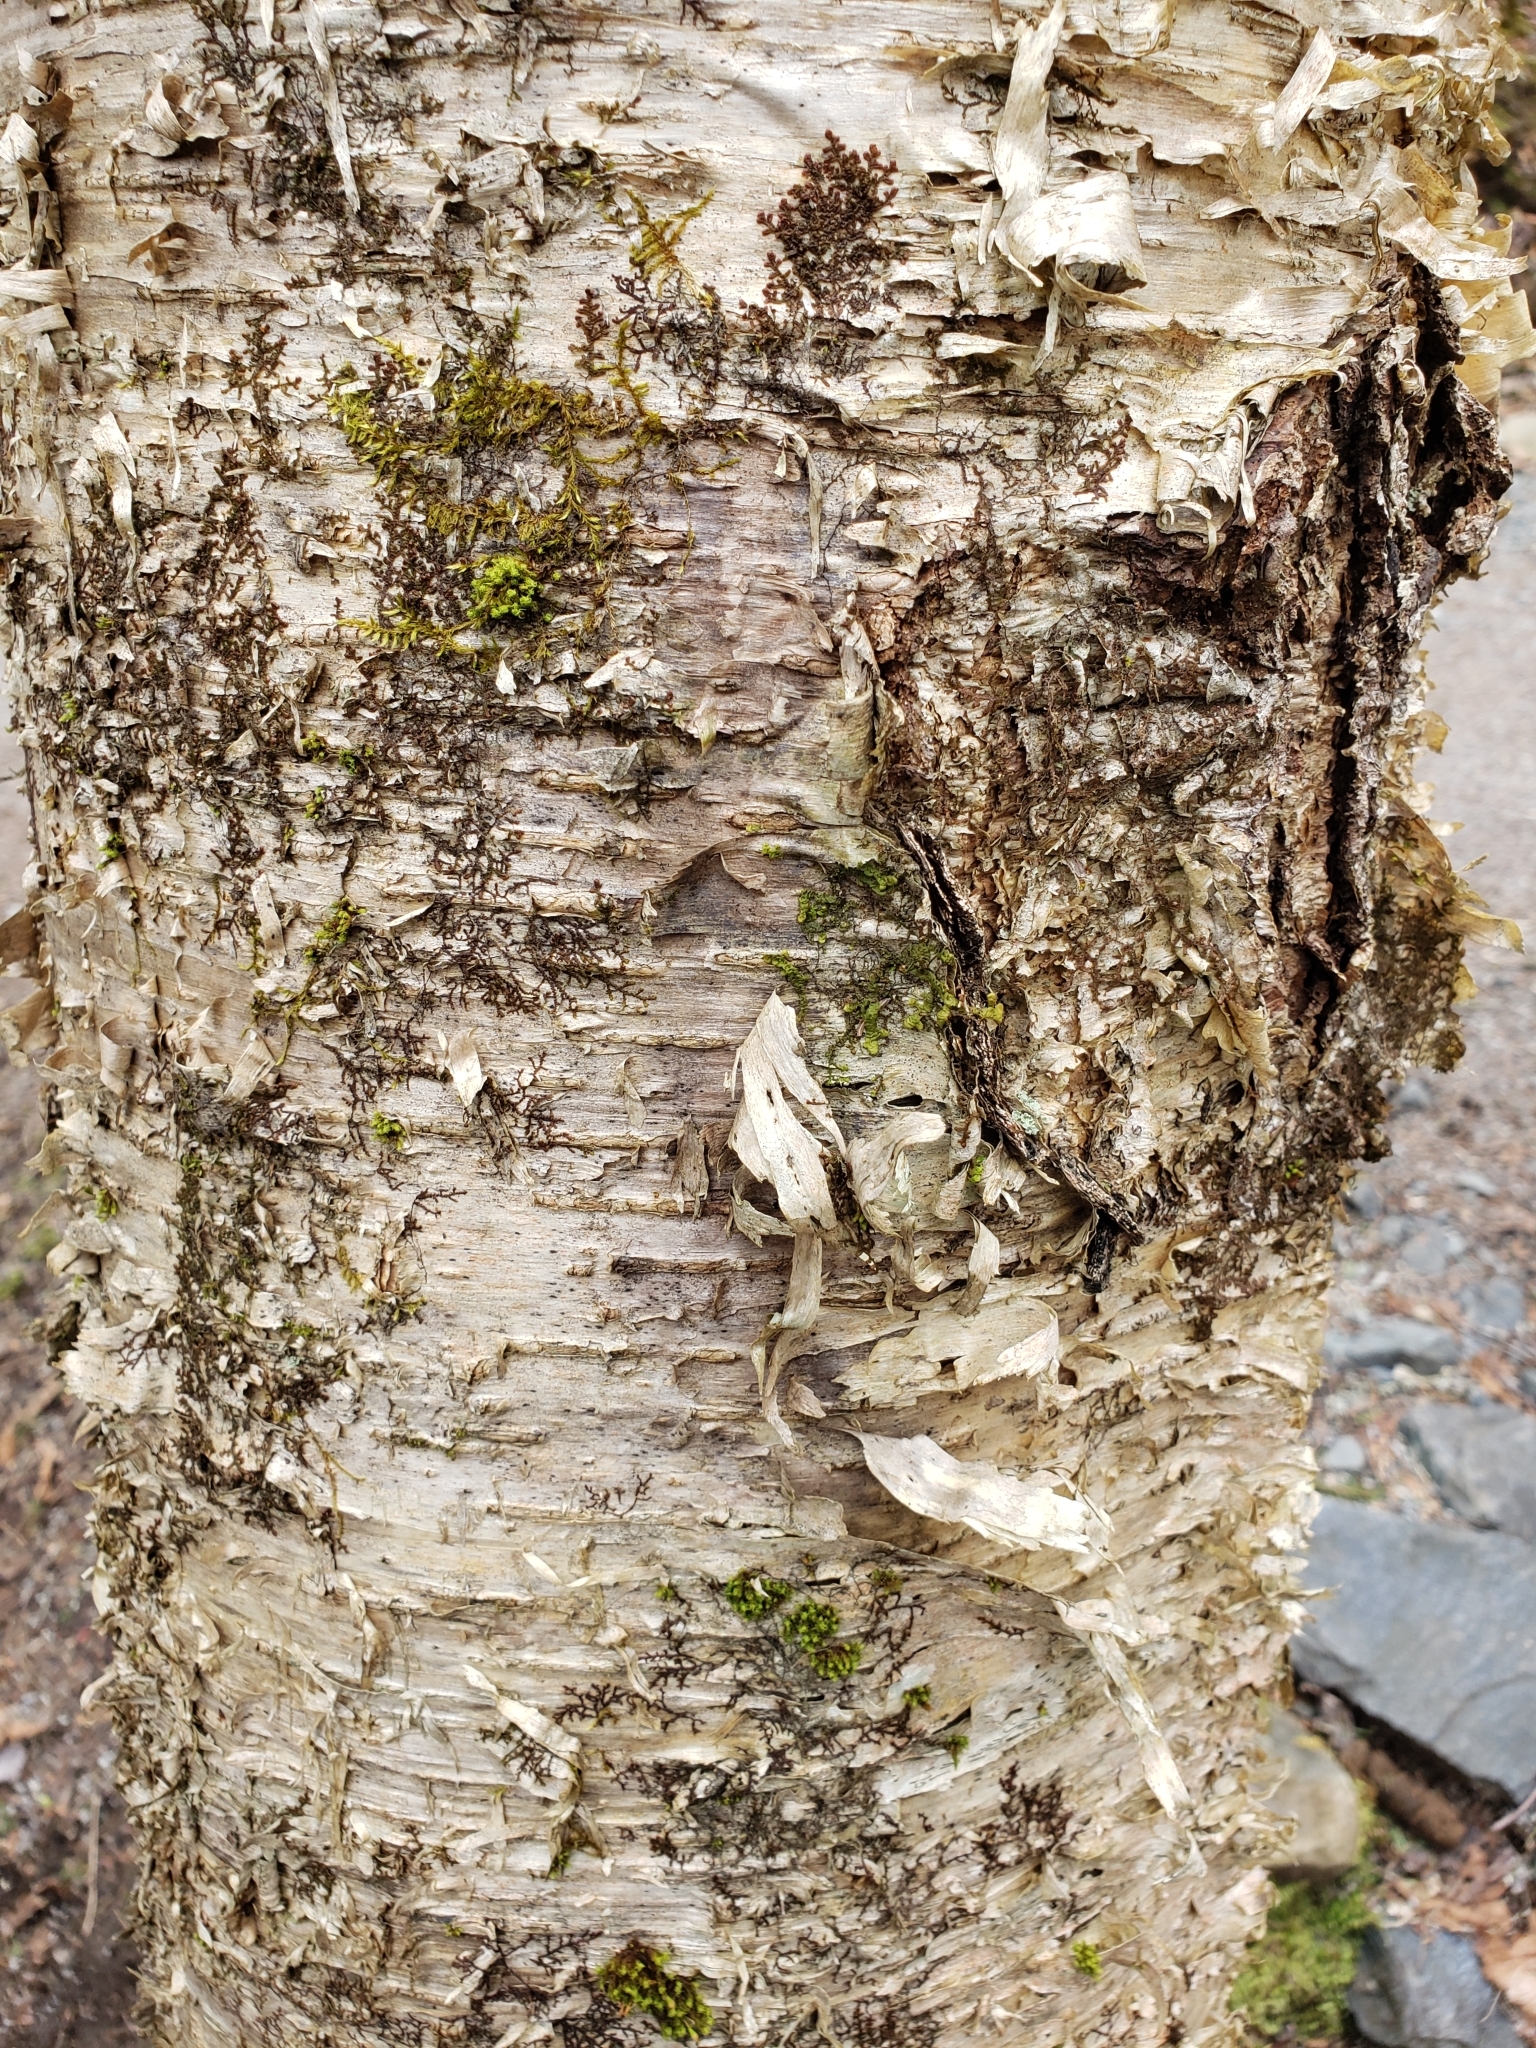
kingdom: Plantae
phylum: Tracheophyta
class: Magnoliopsida
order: Fagales
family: Betulaceae
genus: Betula
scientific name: Betula alleghaniensis
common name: Yellow birch
